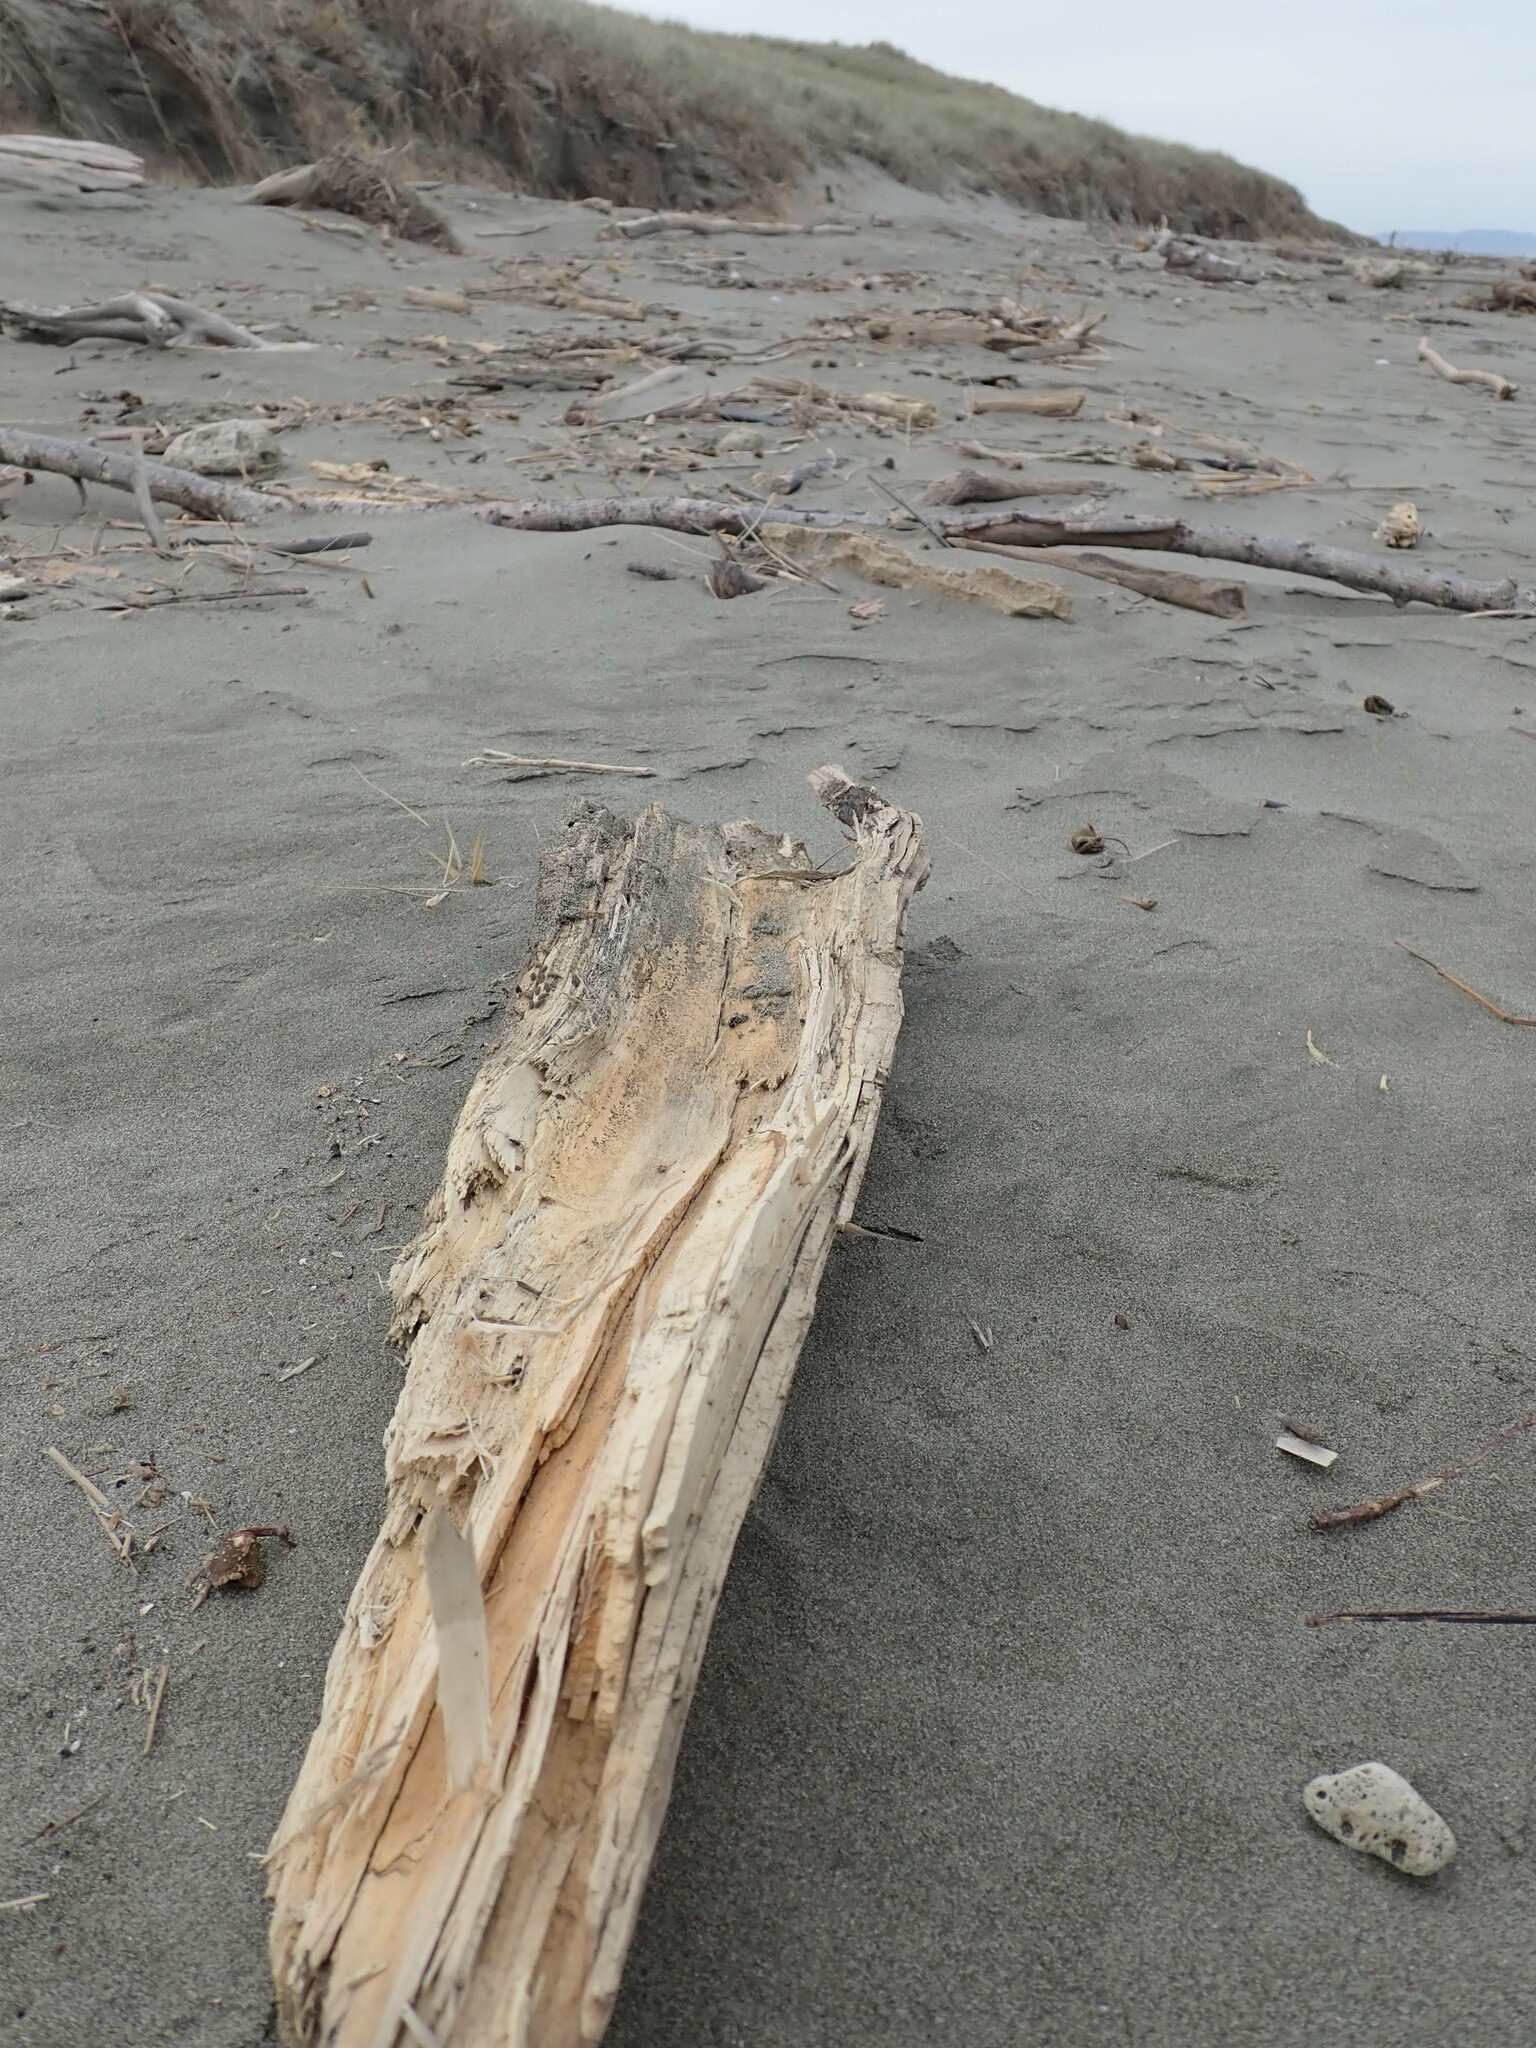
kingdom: Animalia
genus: Lagrioda
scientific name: Lagrioda brounii
